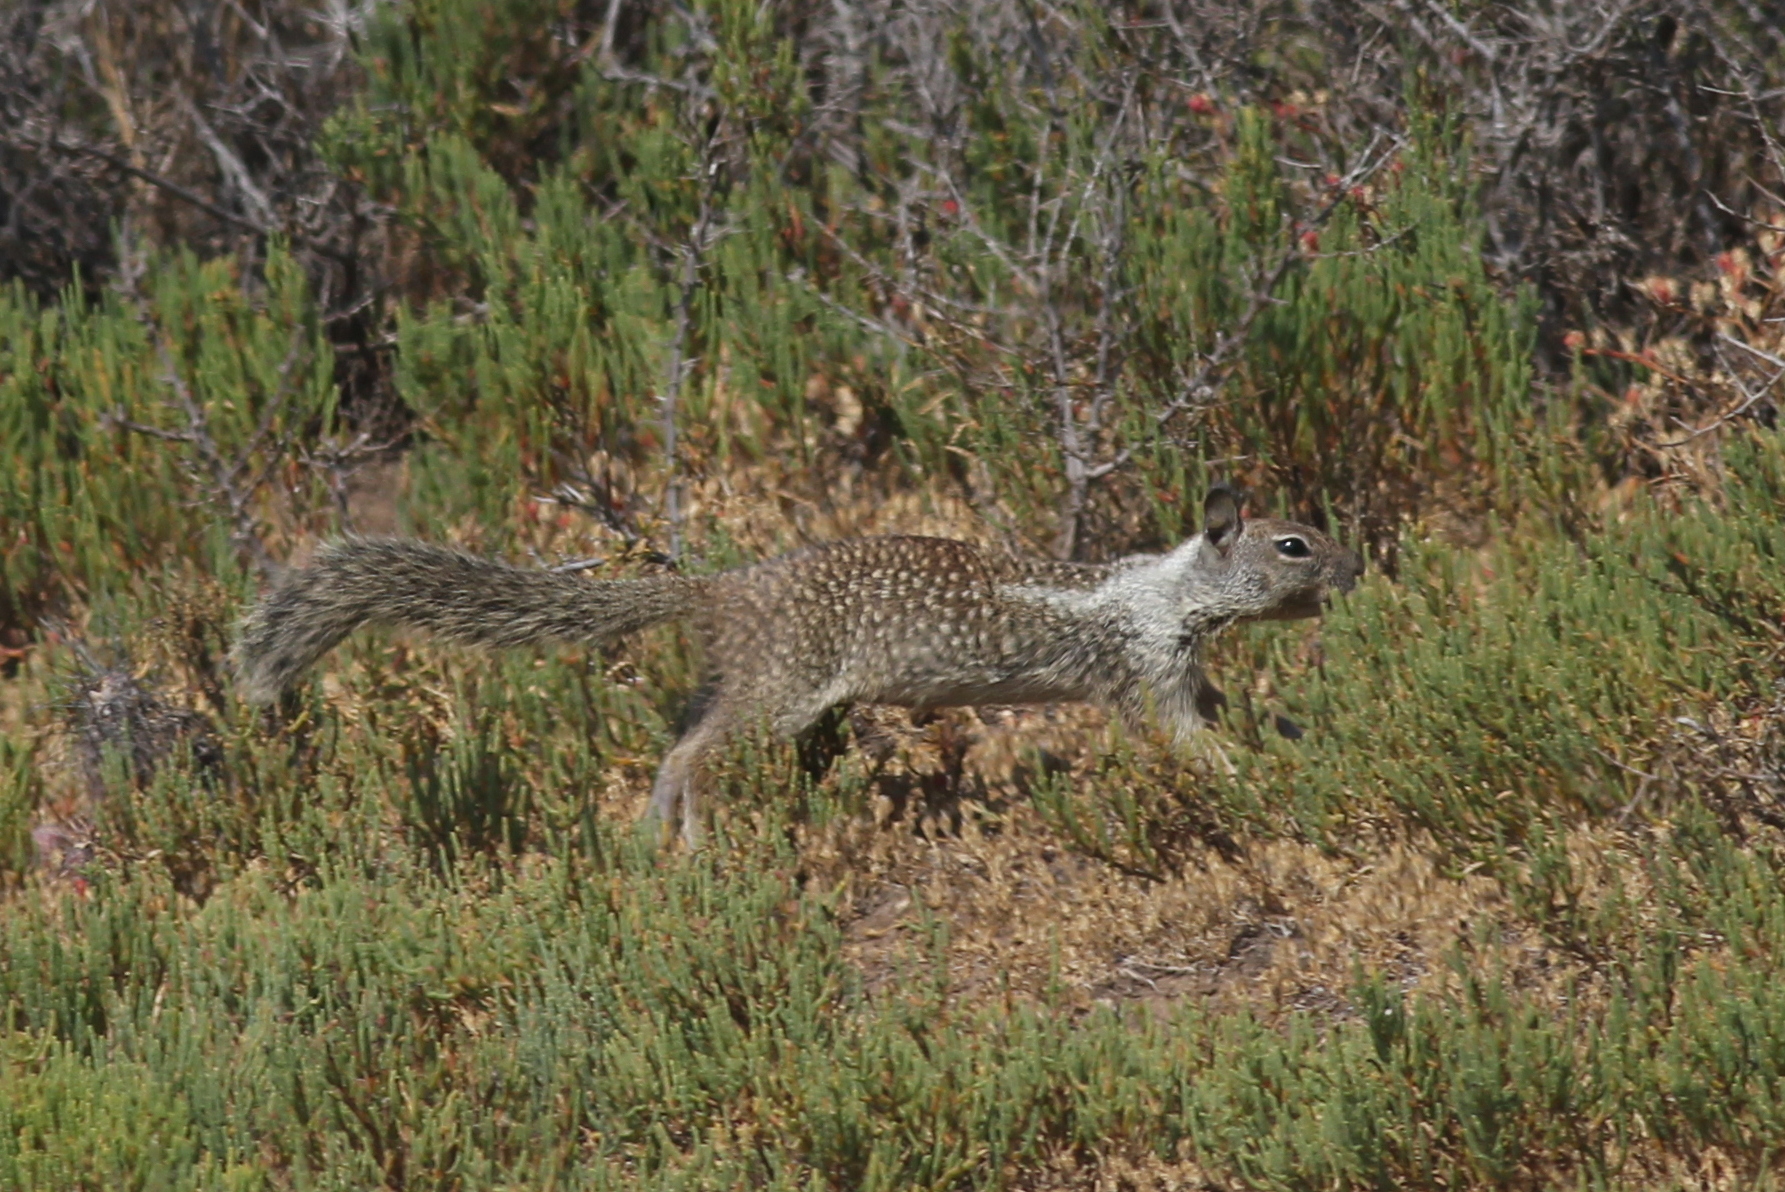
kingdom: Animalia
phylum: Chordata
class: Mammalia
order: Rodentia
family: Sciuridae
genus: Otospermophilus
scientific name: Otospermophilus beecheyi
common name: California ground squirrel
